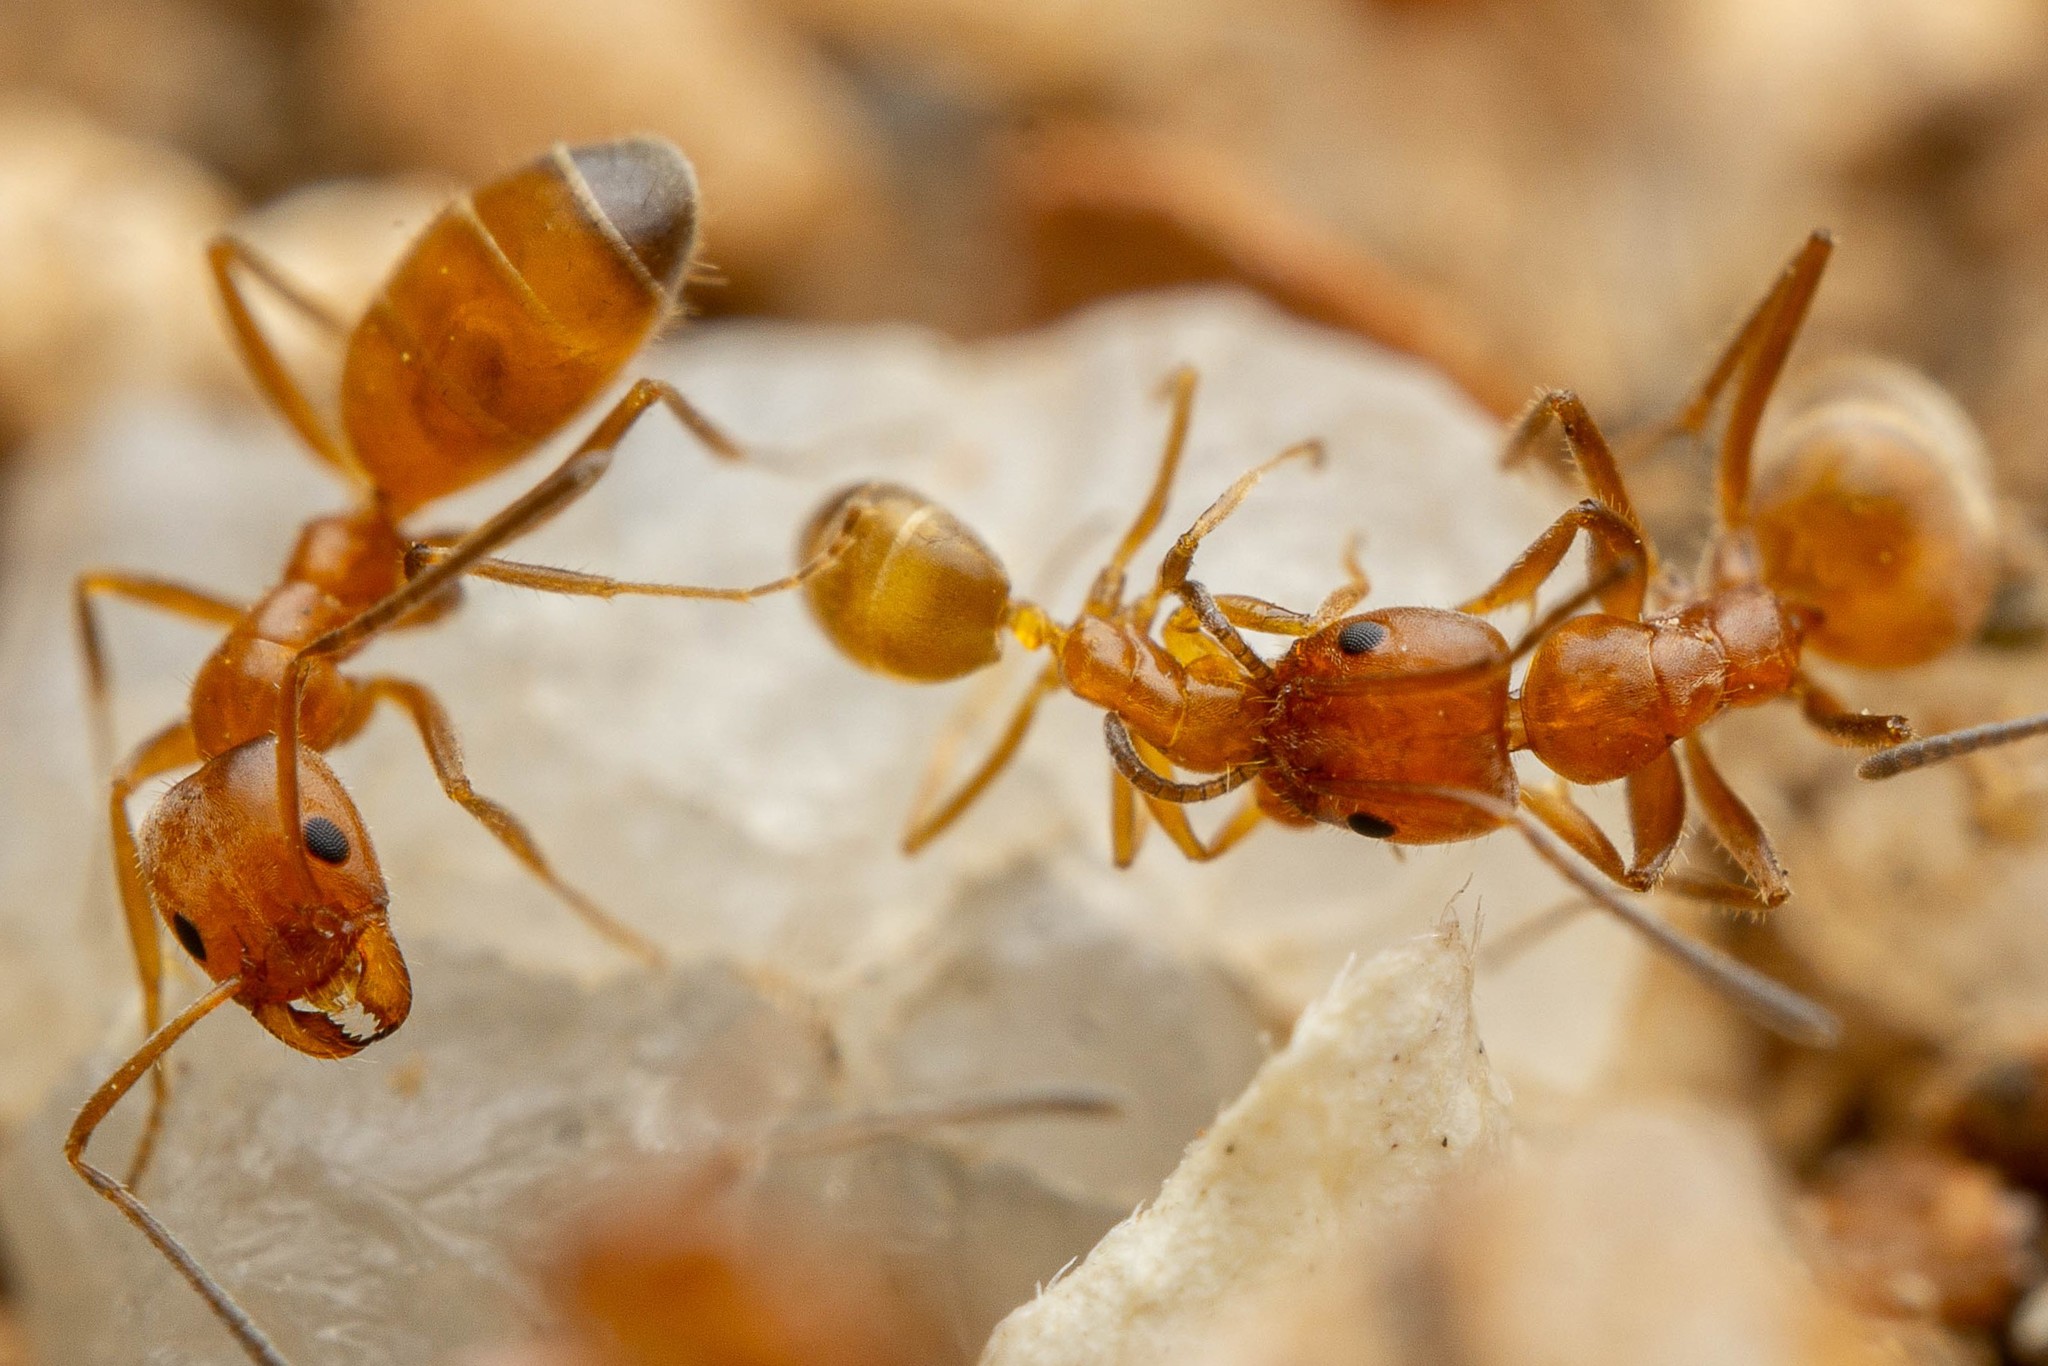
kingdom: Animalia
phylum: Arthropoda
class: Insecta
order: Hymenoptera
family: Formicidae
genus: Forelius
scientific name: Forelius mccooki
